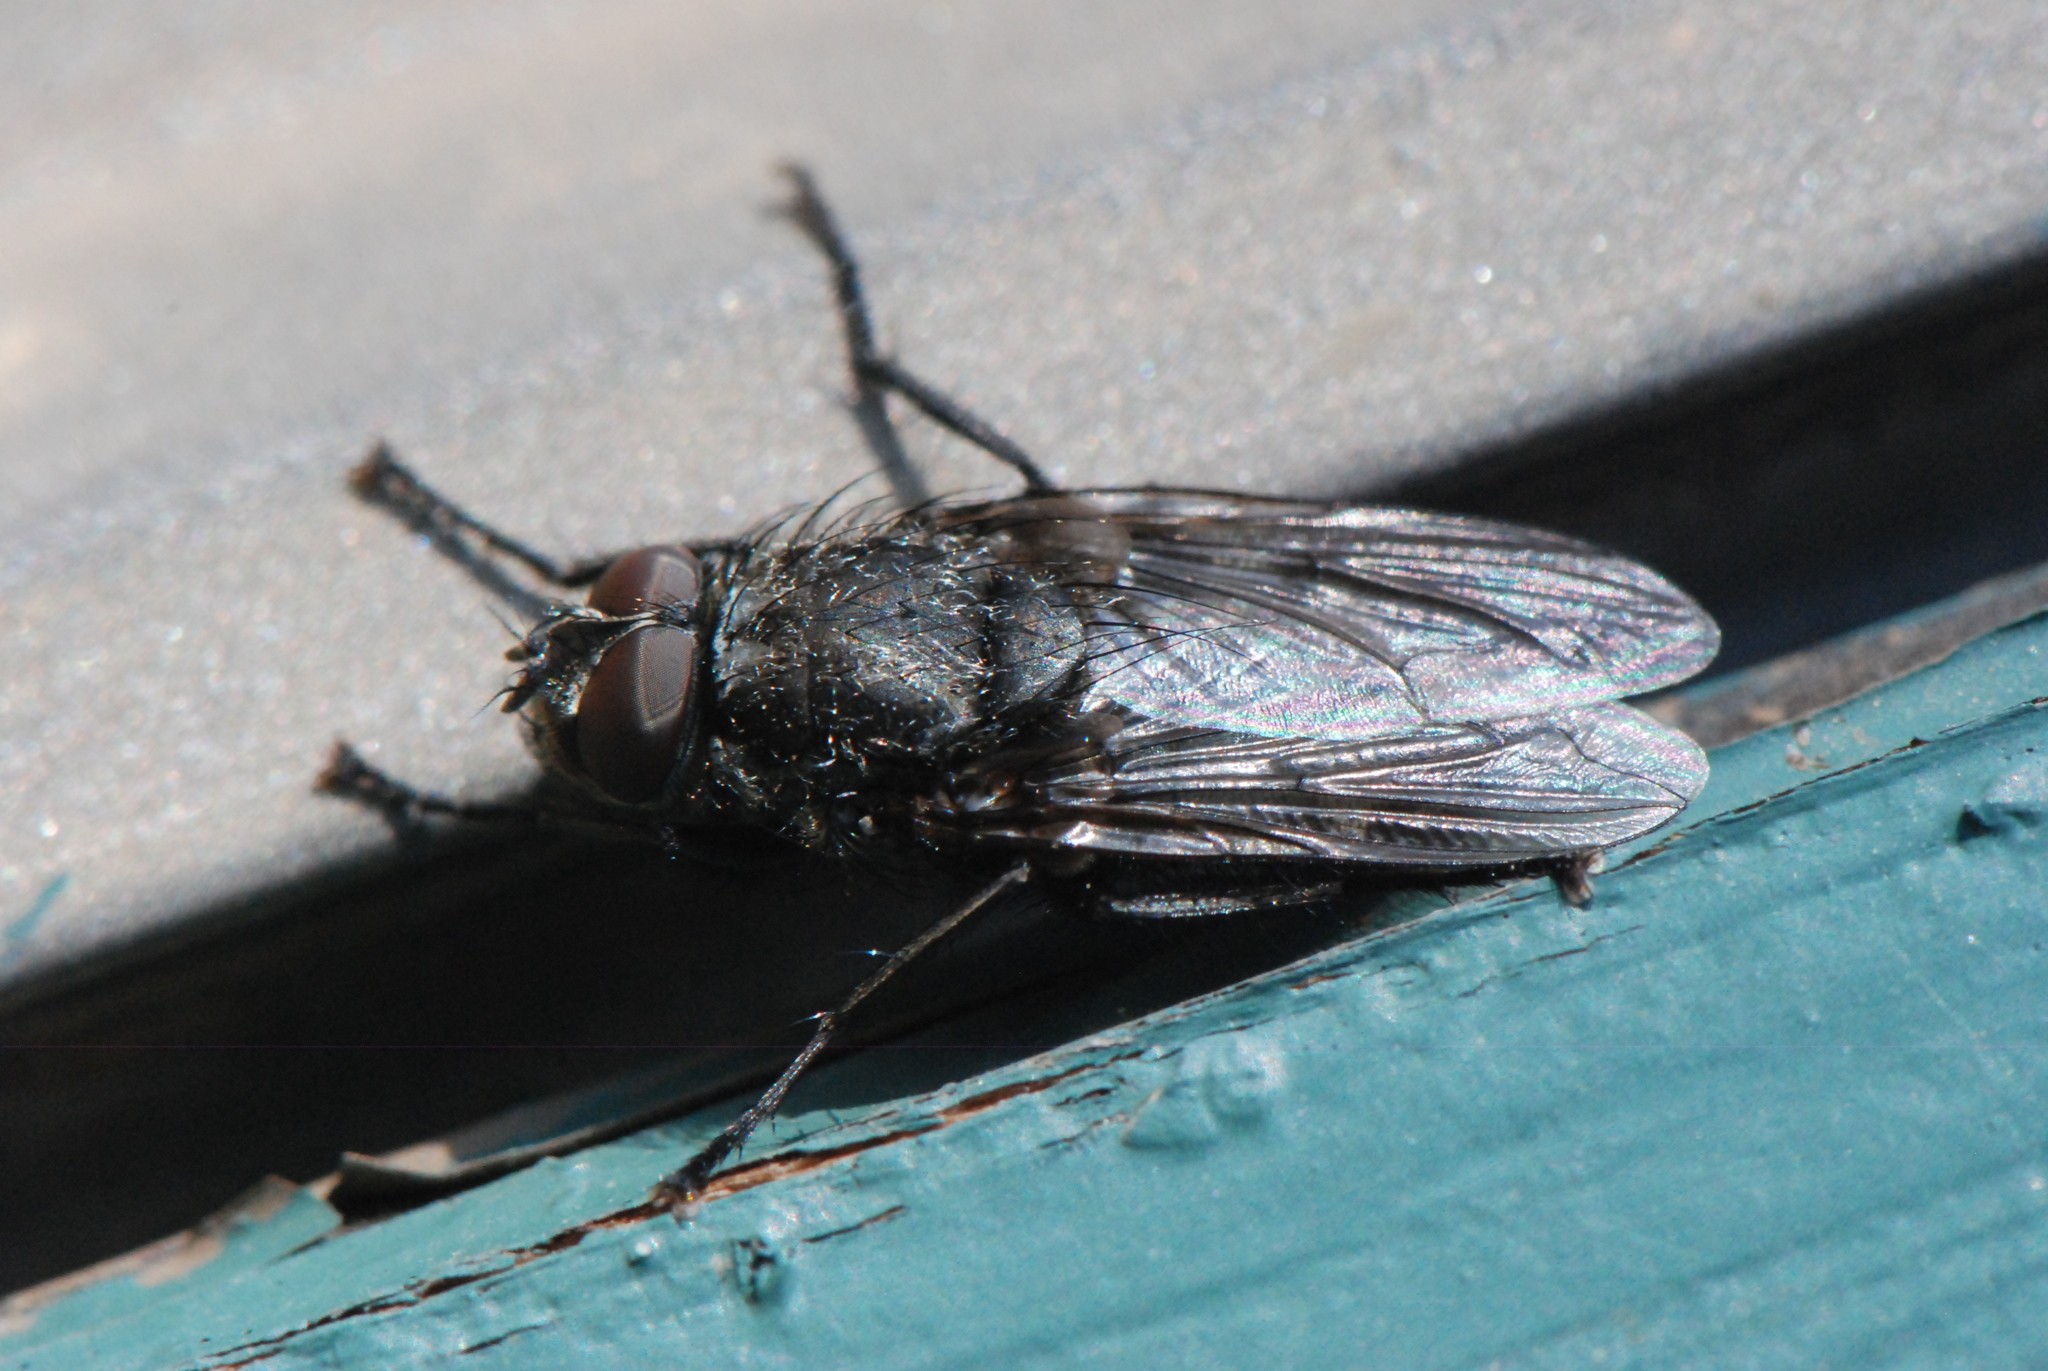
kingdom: Animalia
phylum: Arthropoda
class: Insecta
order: Diptera
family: Polleniidae
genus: Pollenia
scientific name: Pollenia vagabunda
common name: Vagabund cluster fly
